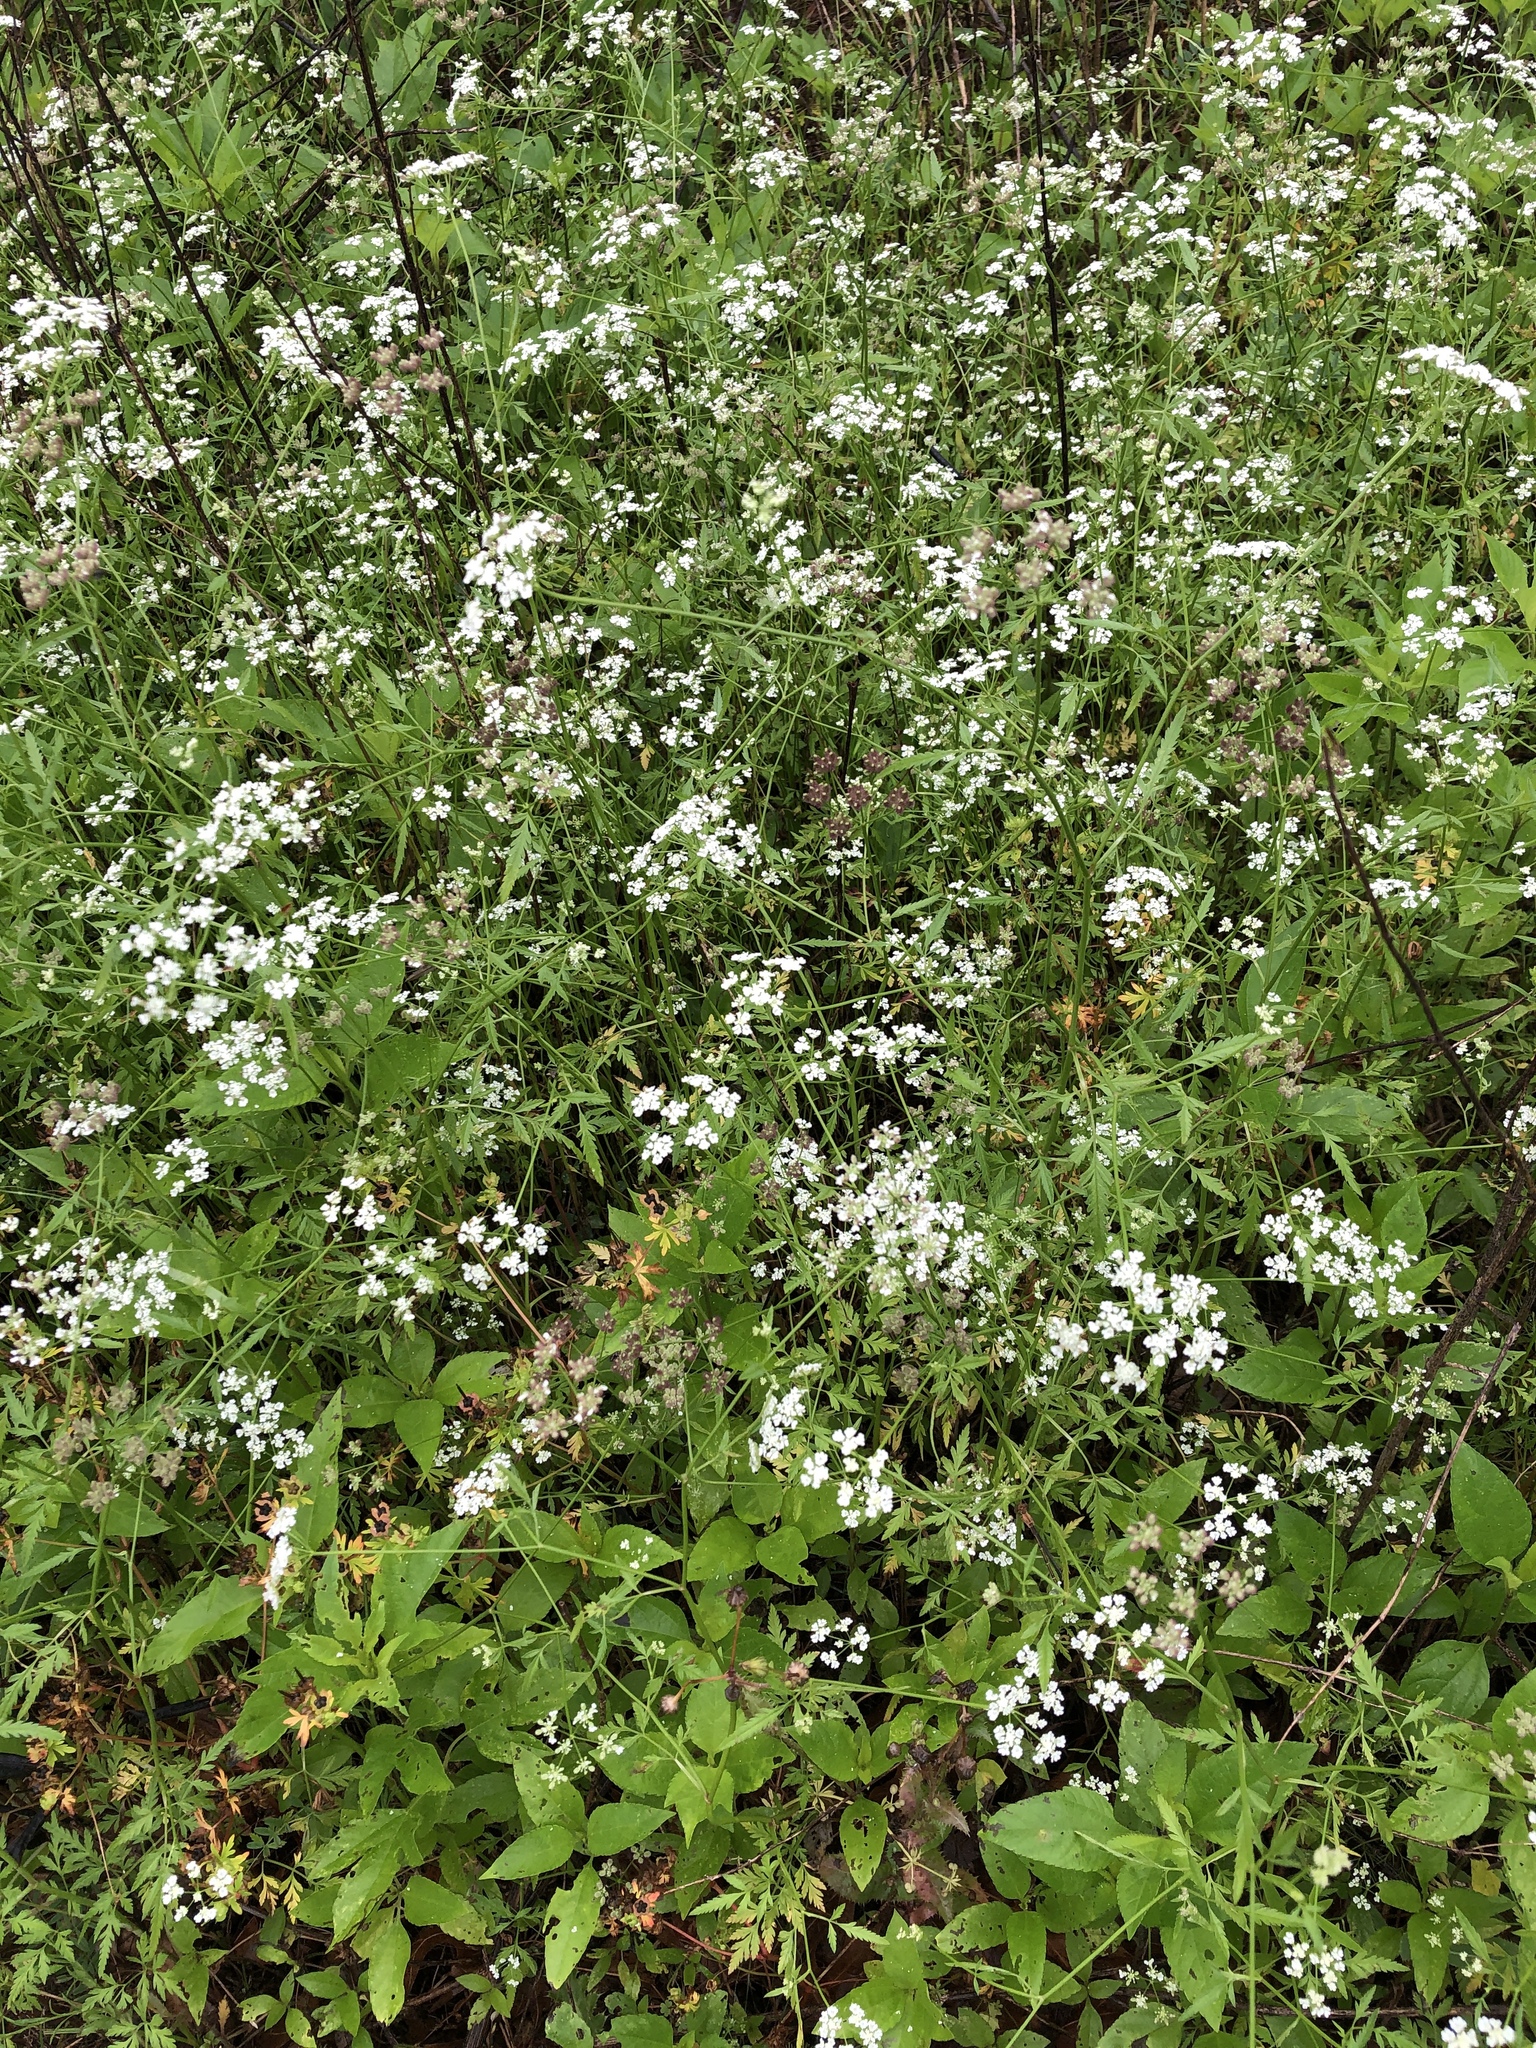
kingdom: Plantae
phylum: Tracheophyta
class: Magnoliopsida
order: Apiales
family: Apiaceae
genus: Torilis
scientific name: Torilis arvensis
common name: Spreading hedge-parsley
